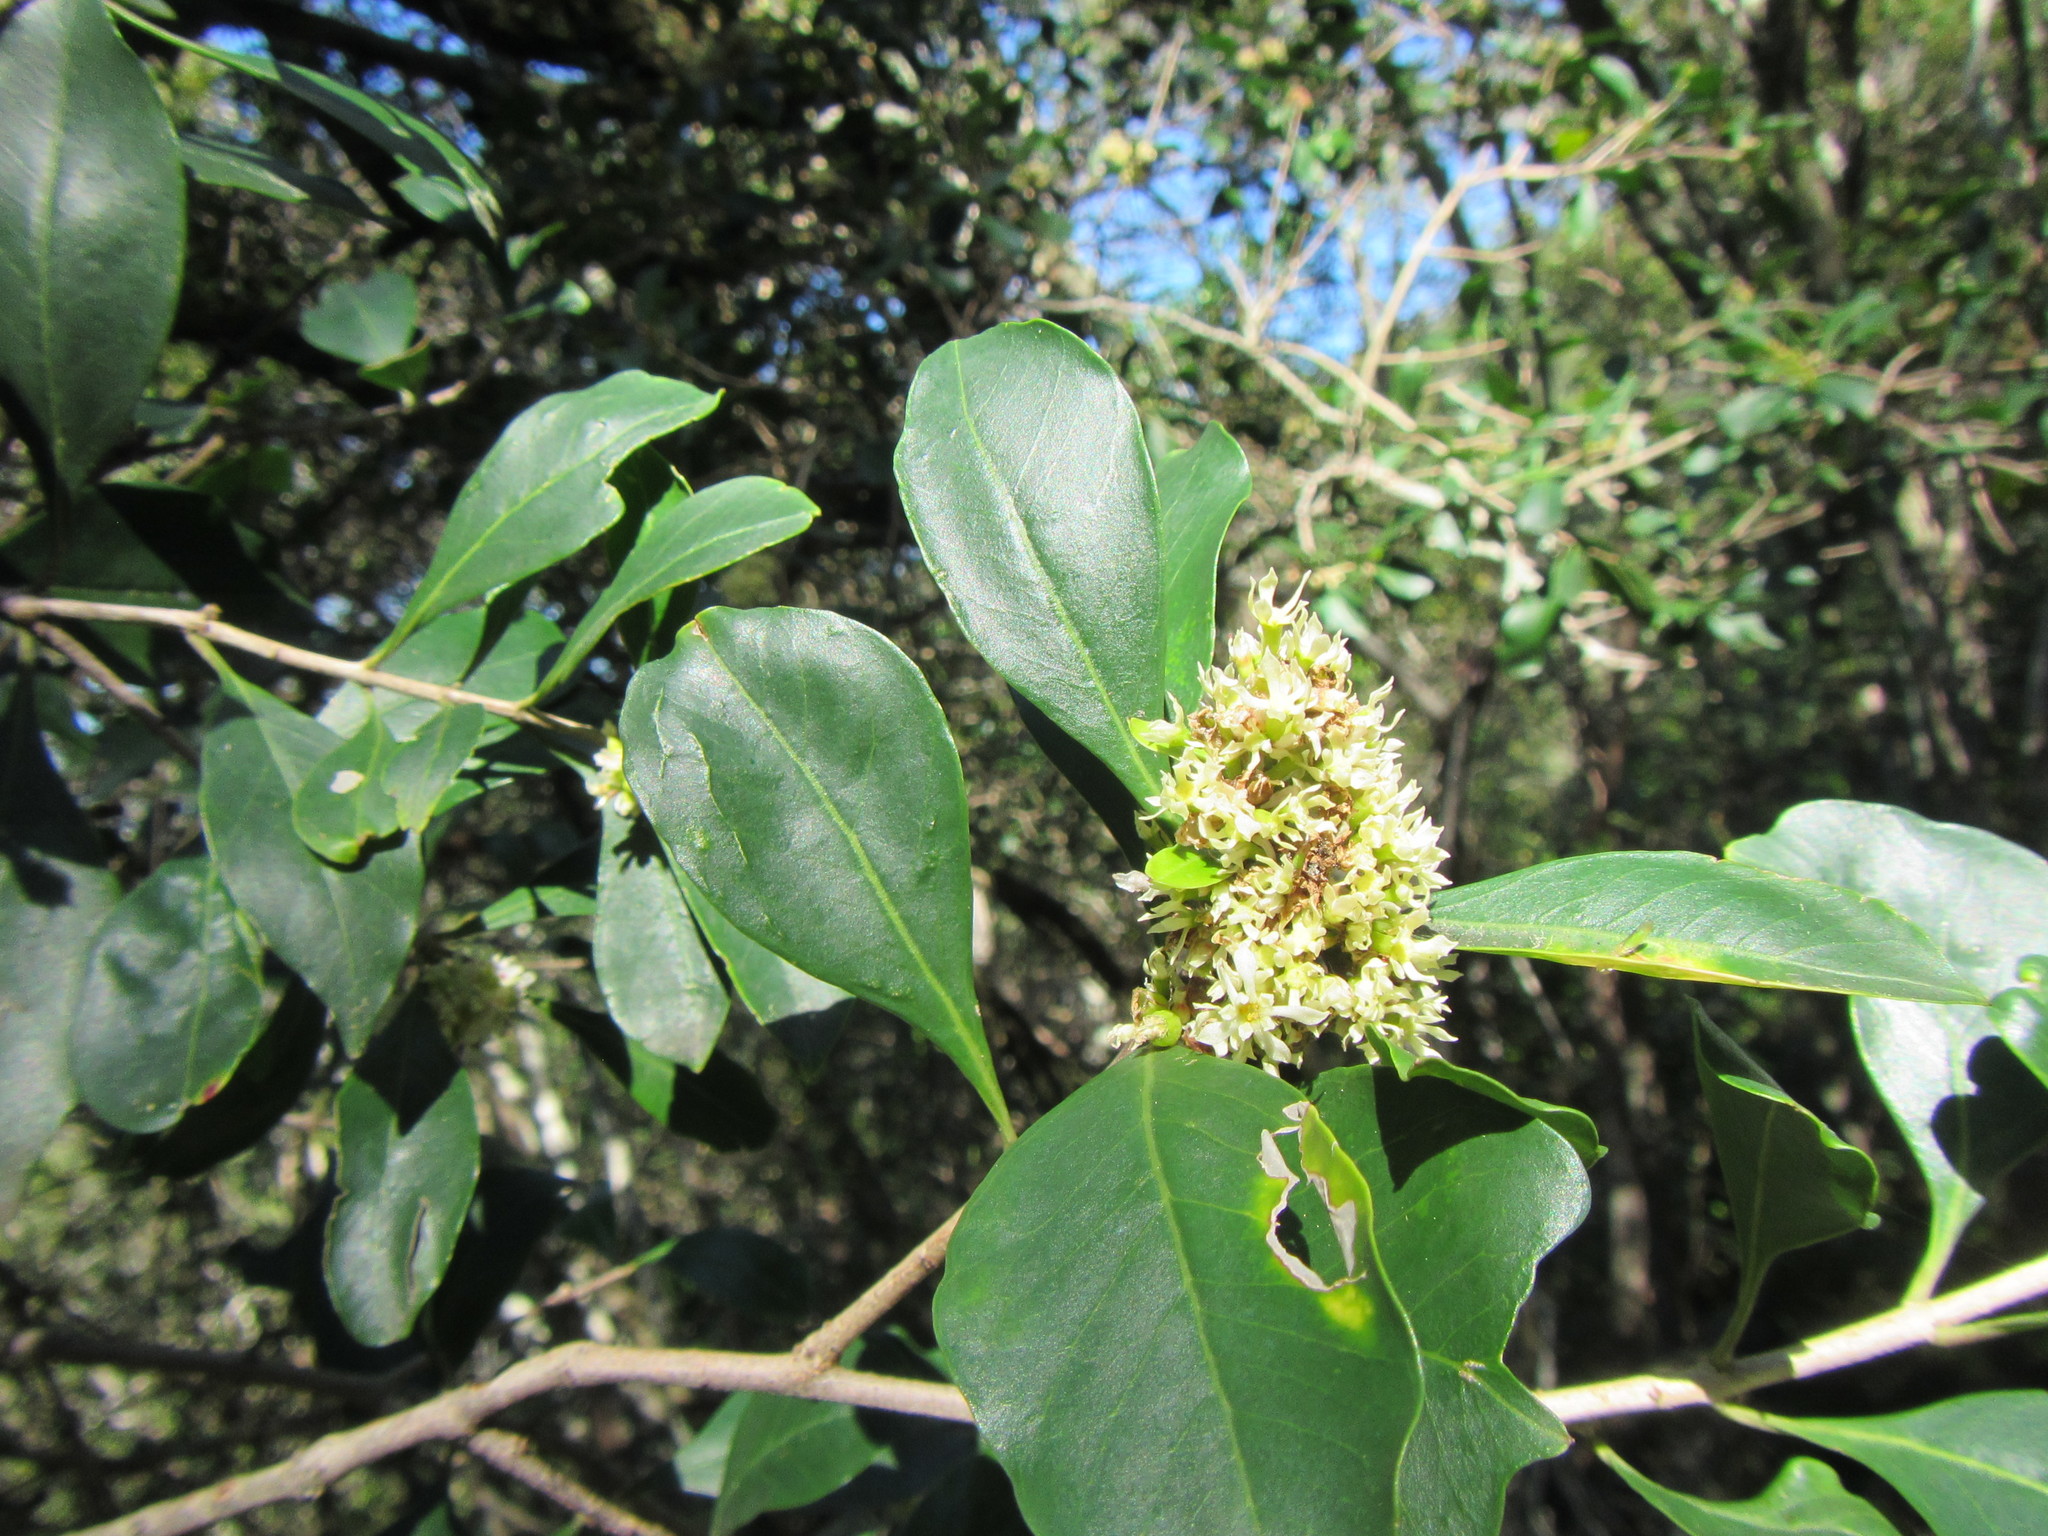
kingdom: Plantae
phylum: Tracheophyta
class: Magnoliopsida
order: Myrtales
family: Penaeaceae
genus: Olinia
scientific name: Olinia ventosa
